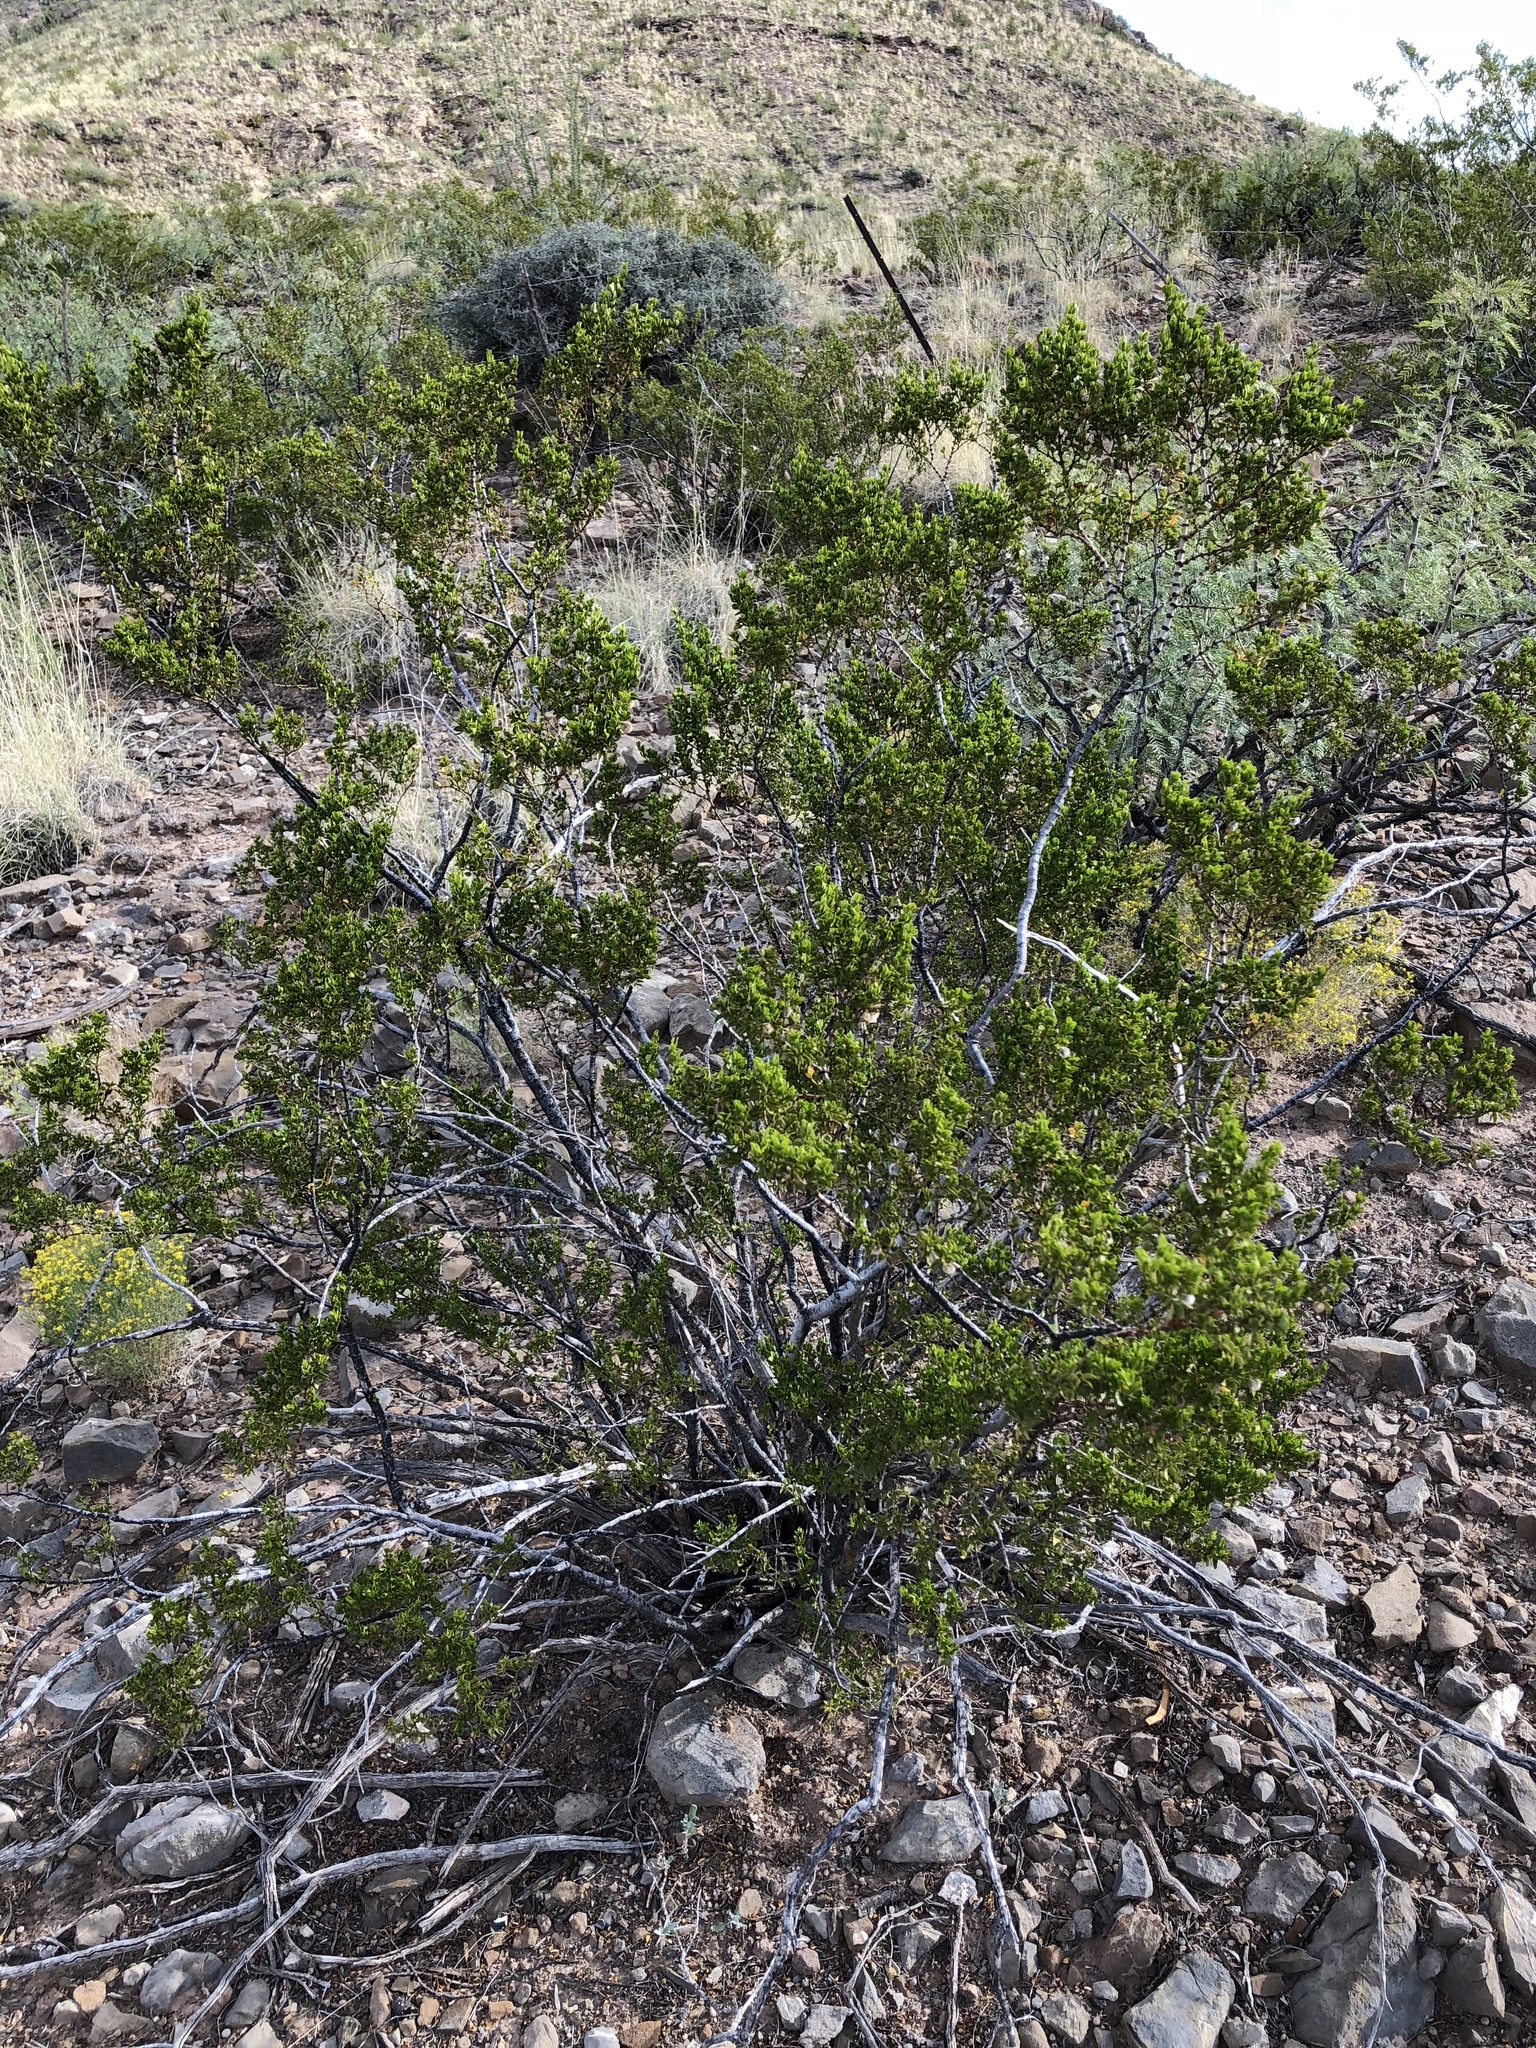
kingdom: Plantae
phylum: Tracheophyta
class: Magnoliopsida
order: Zygophyllales
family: Zygophyllaceae
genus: Larrea
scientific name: Larrea tridentata
